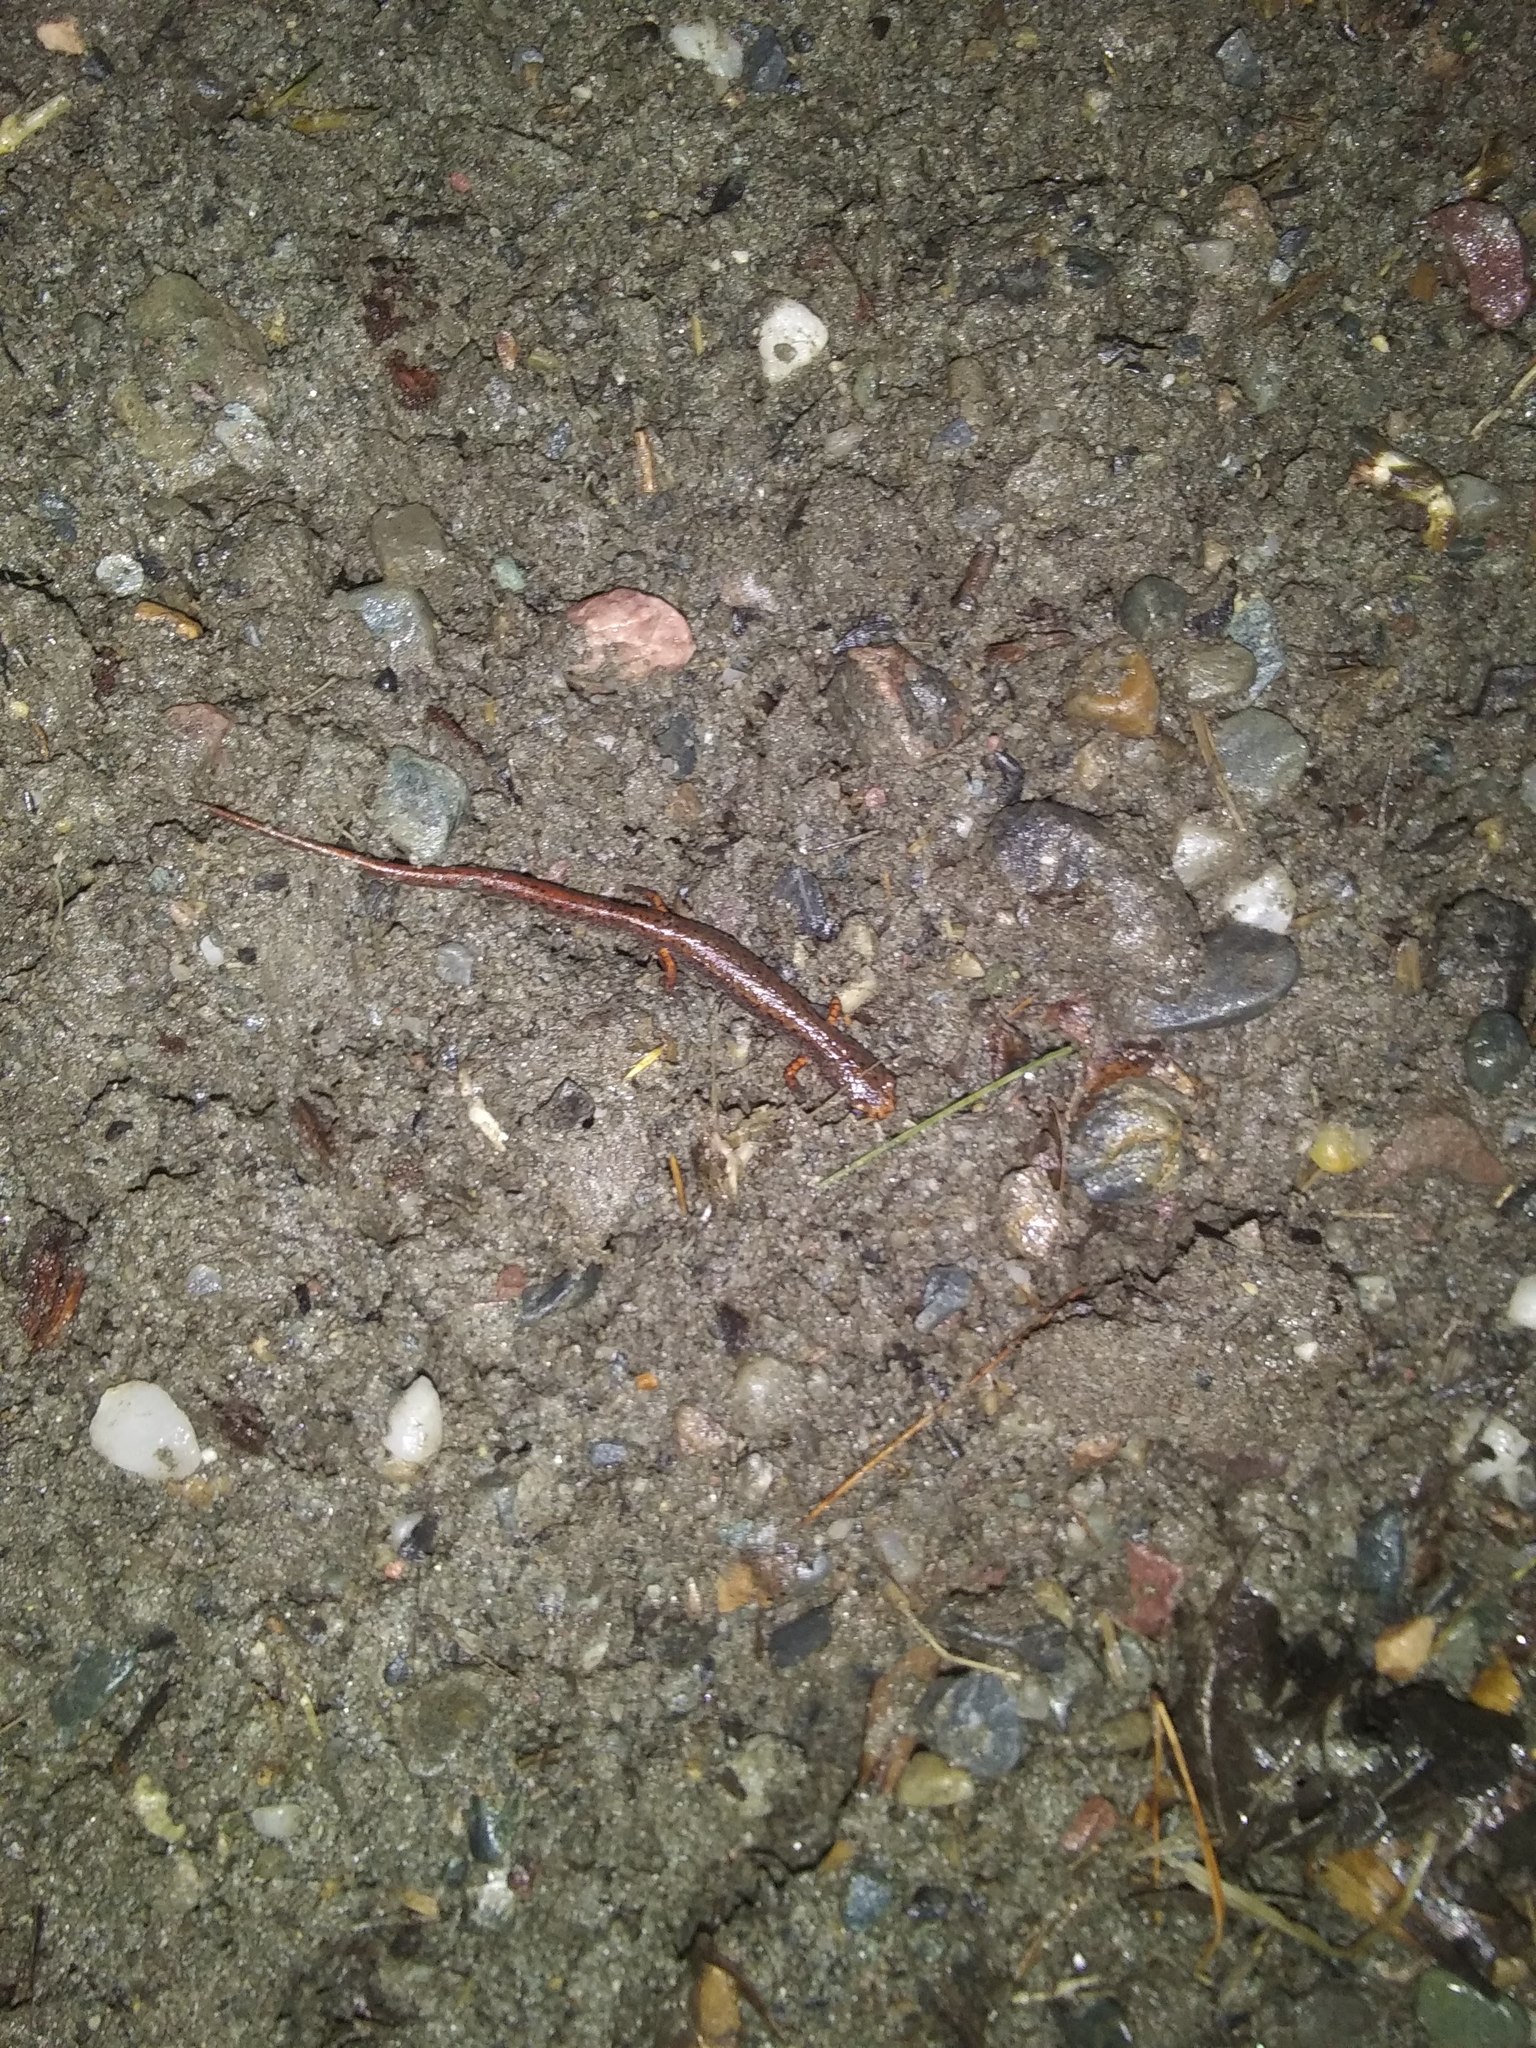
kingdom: Animalia
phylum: Chordata
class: Amphibia
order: Caudata
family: Plethodontidae
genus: Hemidactylium
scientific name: Hemidactylium scutatum
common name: Four-toed salamander
